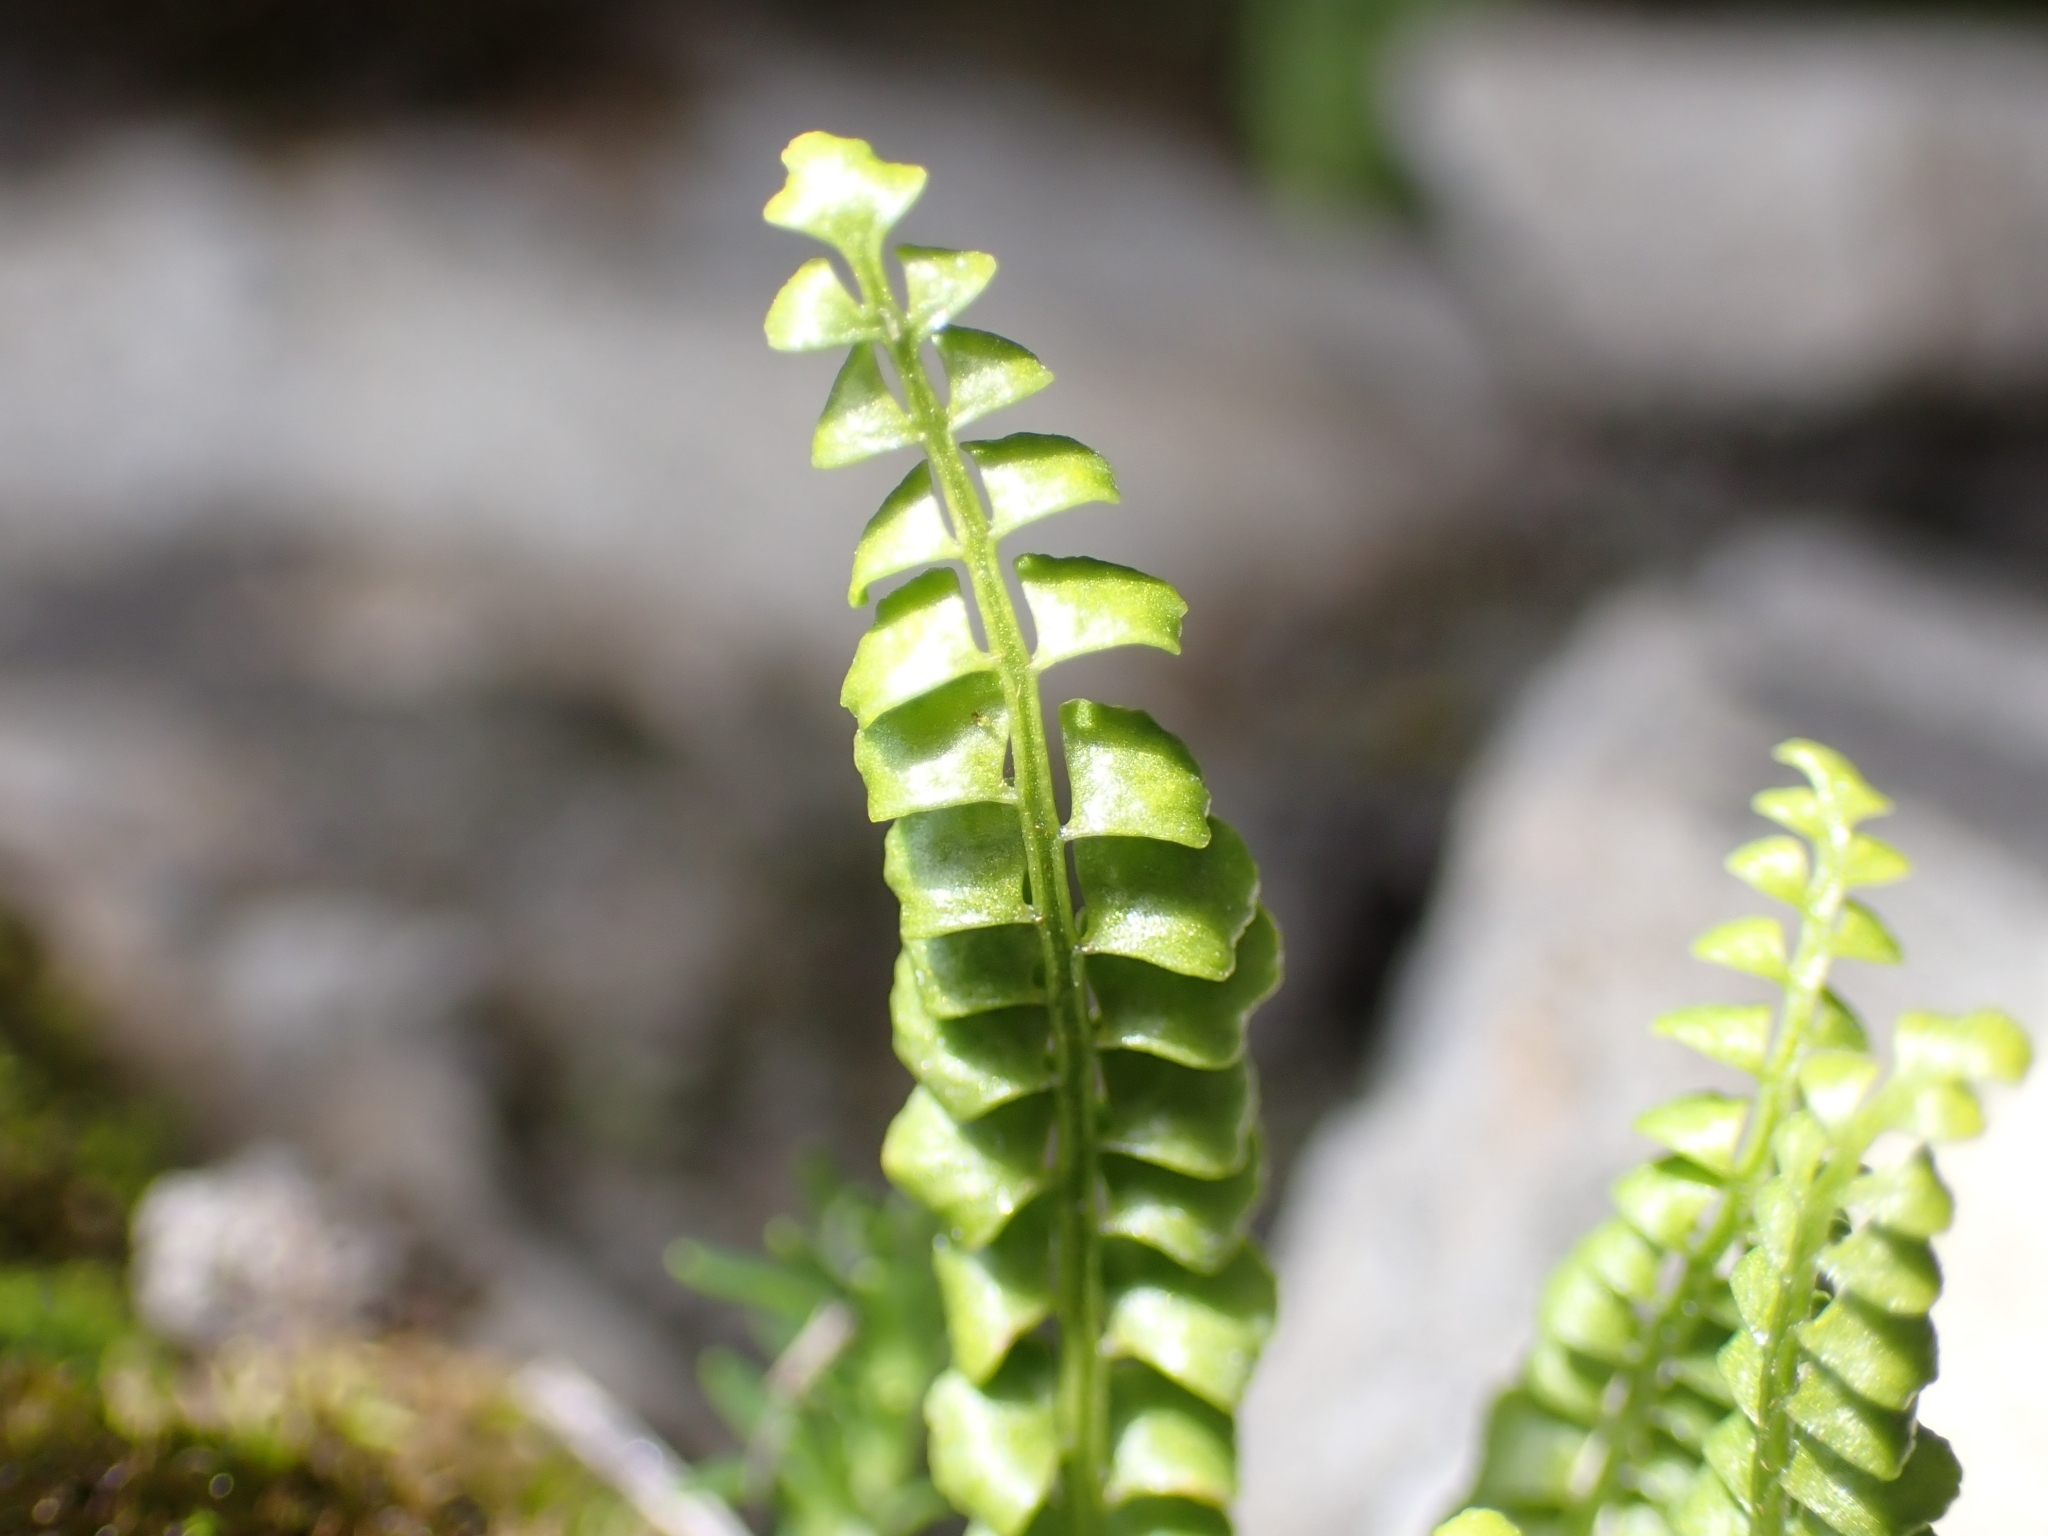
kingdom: Plantae
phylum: Tracheophyta
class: Polypodiopsida
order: Polypodiales
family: Aspleniaceae
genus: Asplenium
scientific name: Asplenium viride
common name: Green spleenwort
